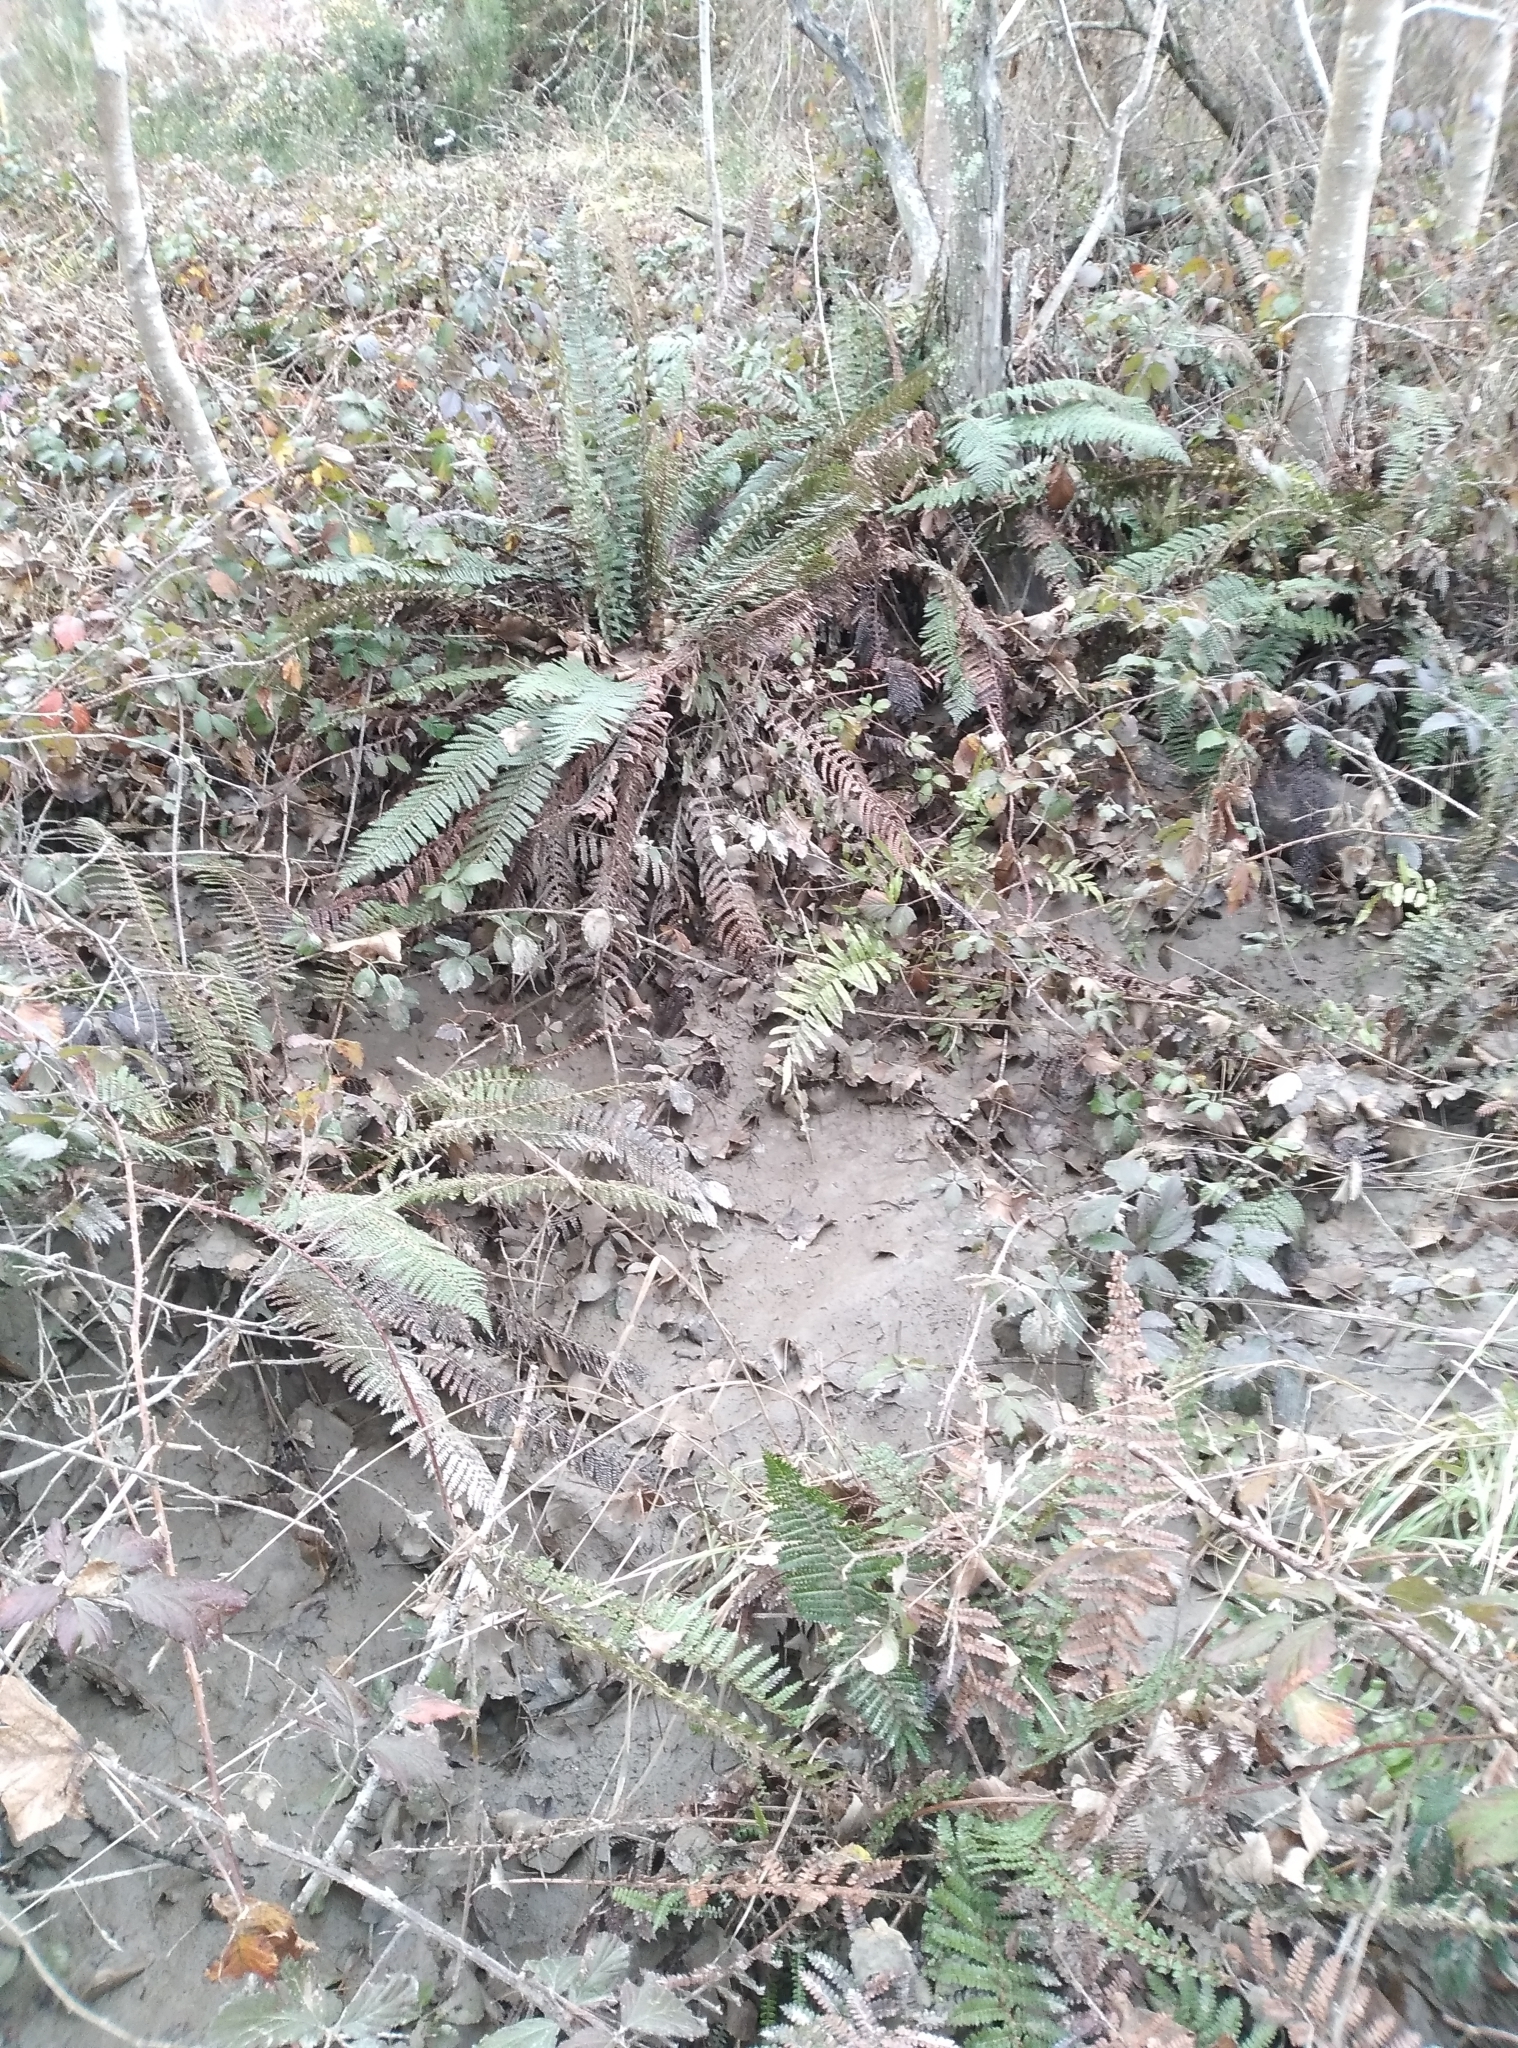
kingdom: Plantae
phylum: Tracheophyta
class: Polypodiopsida
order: Polypodiales
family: Dryopteridaceae
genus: Polystichum
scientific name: Polystichum vestitum
